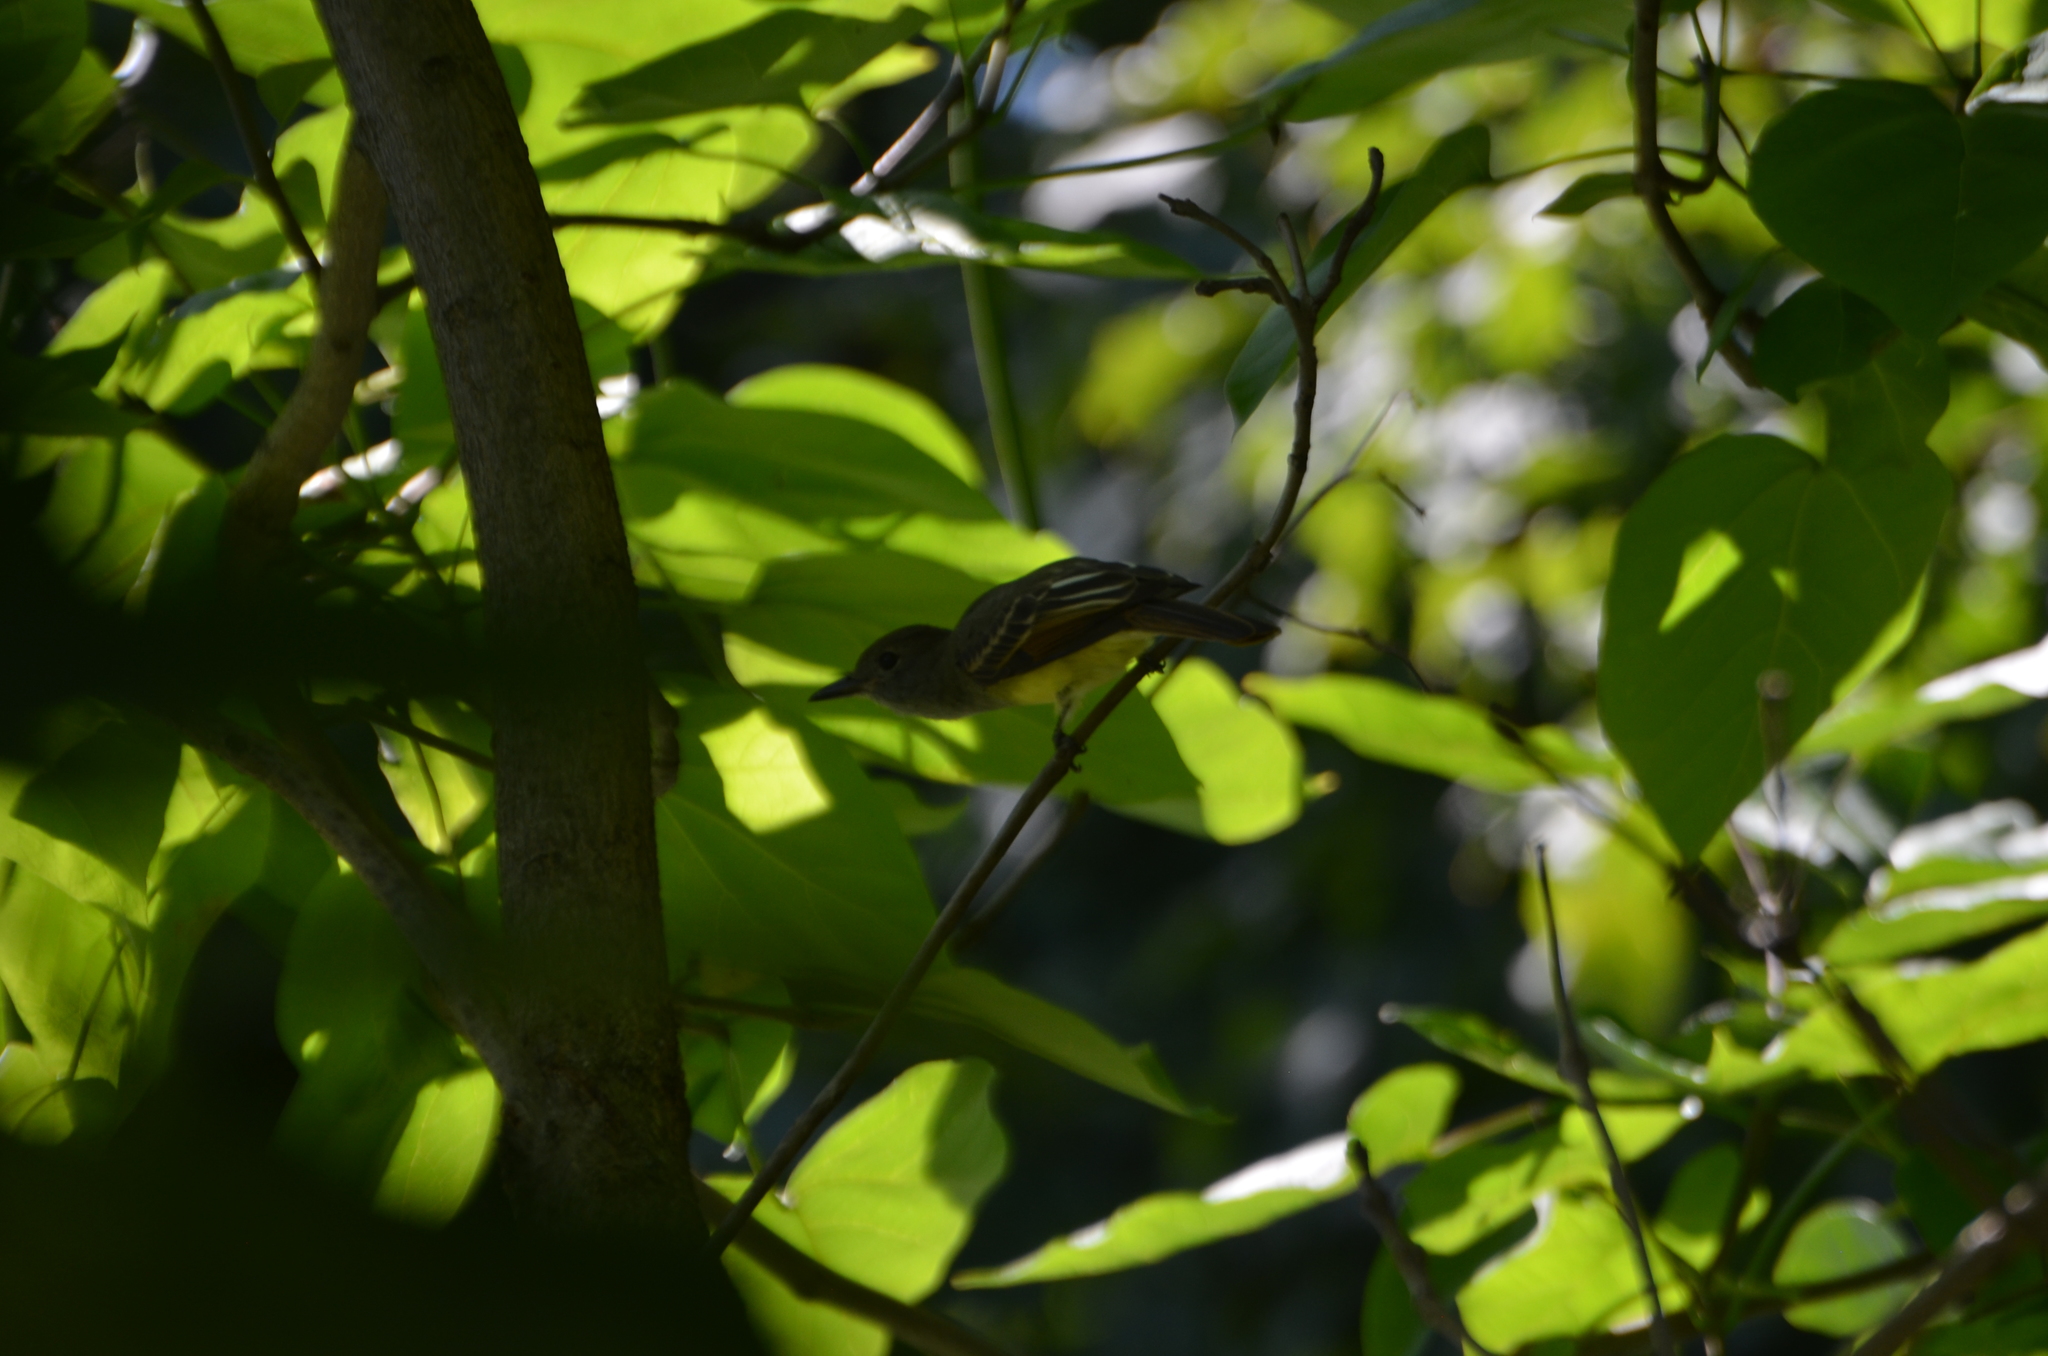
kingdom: Animalia
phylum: Chordata
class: Aves
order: Passeriformes
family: Tyrannidae
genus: Myiarchus
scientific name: Myiarchus crinitus
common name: Great crested flycatcher
